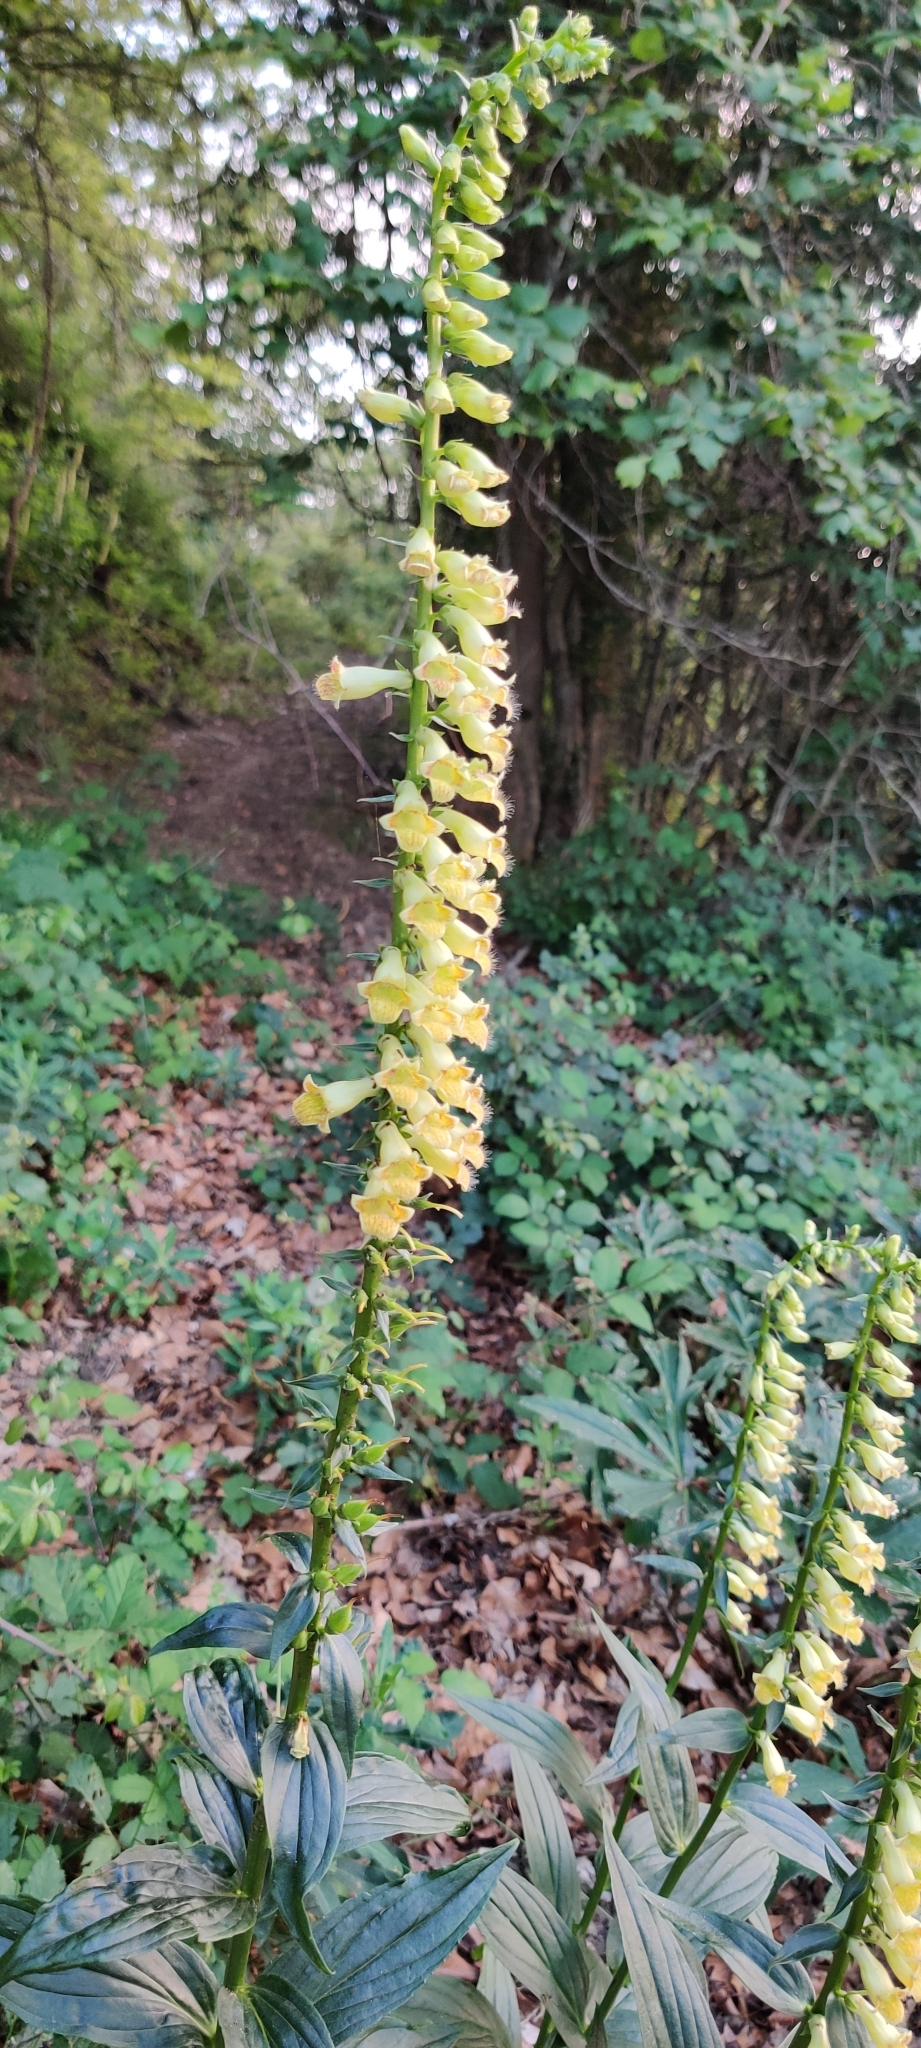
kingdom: Plantae
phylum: Tracheophyta
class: Magnoliopsida
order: Lamiales
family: Plantaginaceae
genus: Digitalis
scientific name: Digitalis lutea
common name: Straw foxglove
